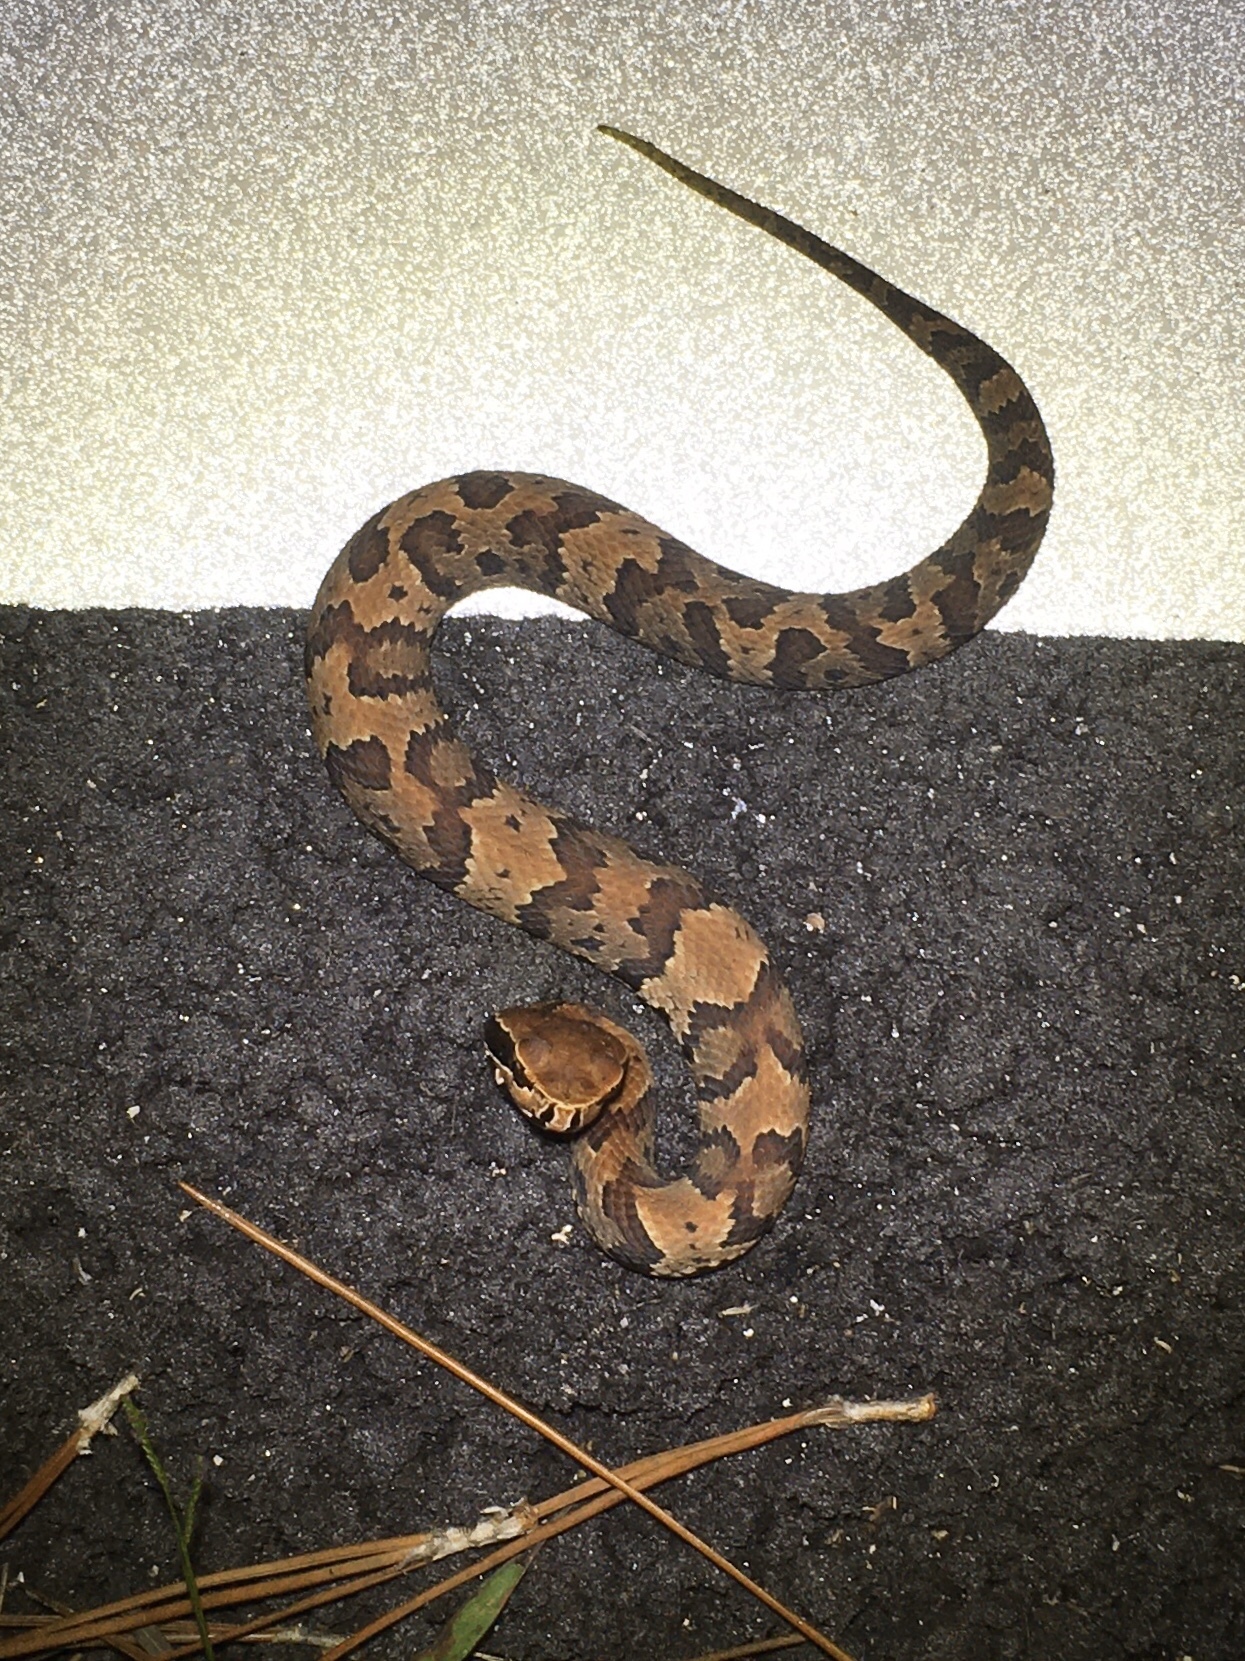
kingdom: Animalia
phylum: Chordata
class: Squamata
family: Viperidae
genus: Agkistrodon
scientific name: Agkistrodon conanti
